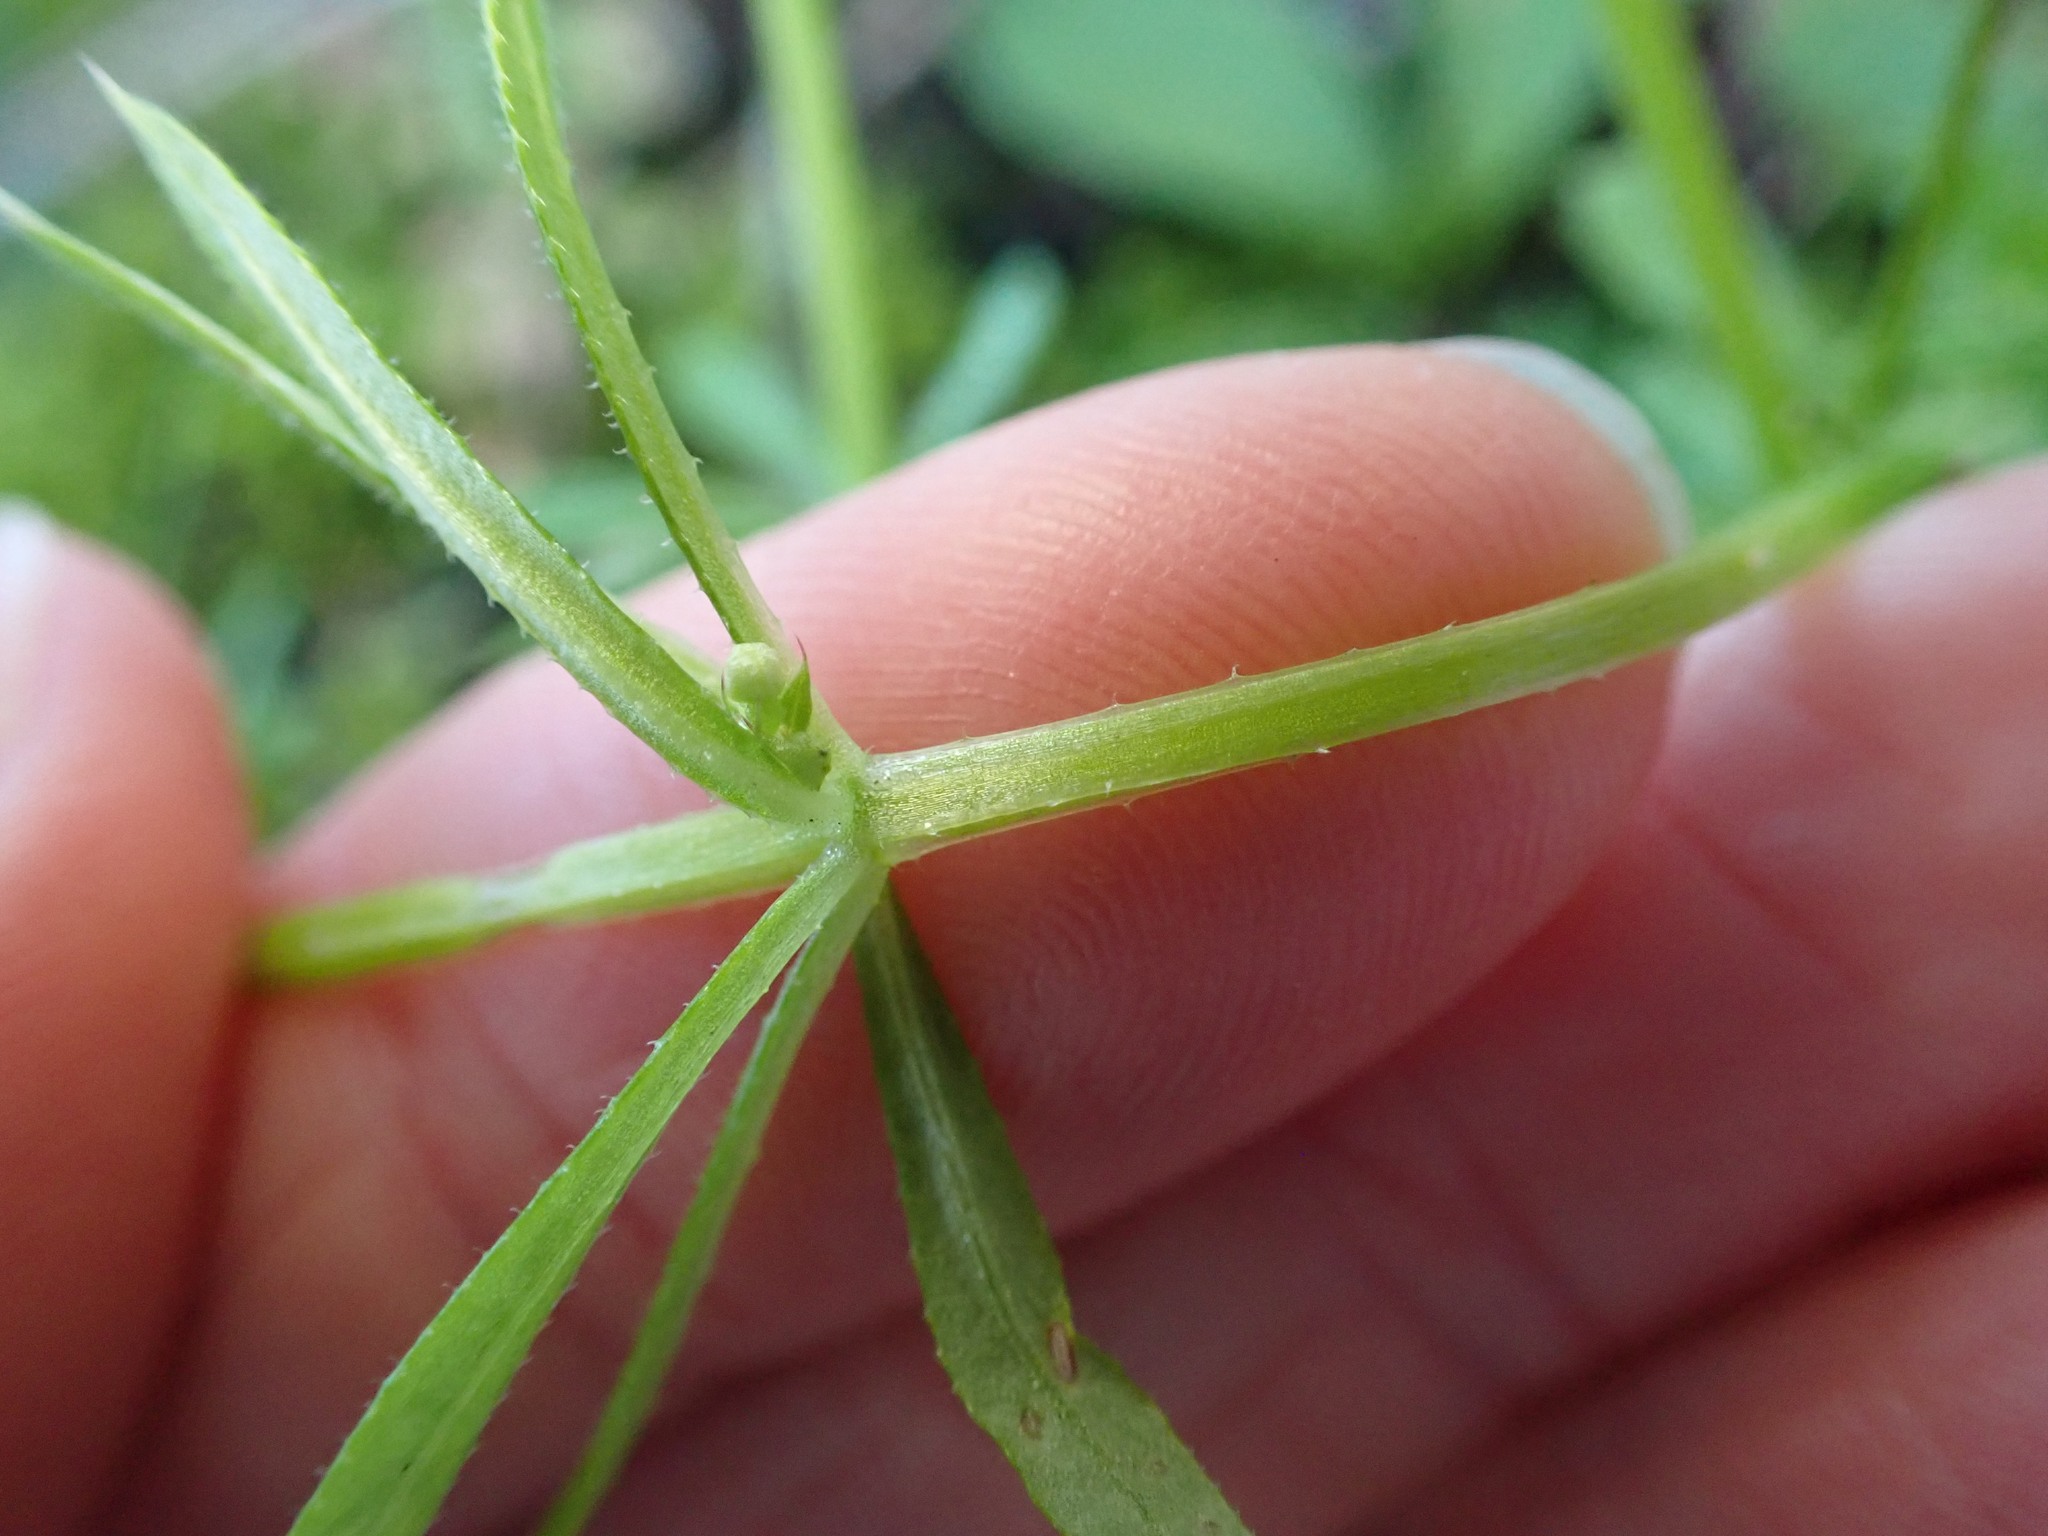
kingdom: Plantae
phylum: Tracheophyta
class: Magnoliopsida
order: Gentianales
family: Rubiaceae
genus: Galium
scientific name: Galium aparine
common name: Cleavers
